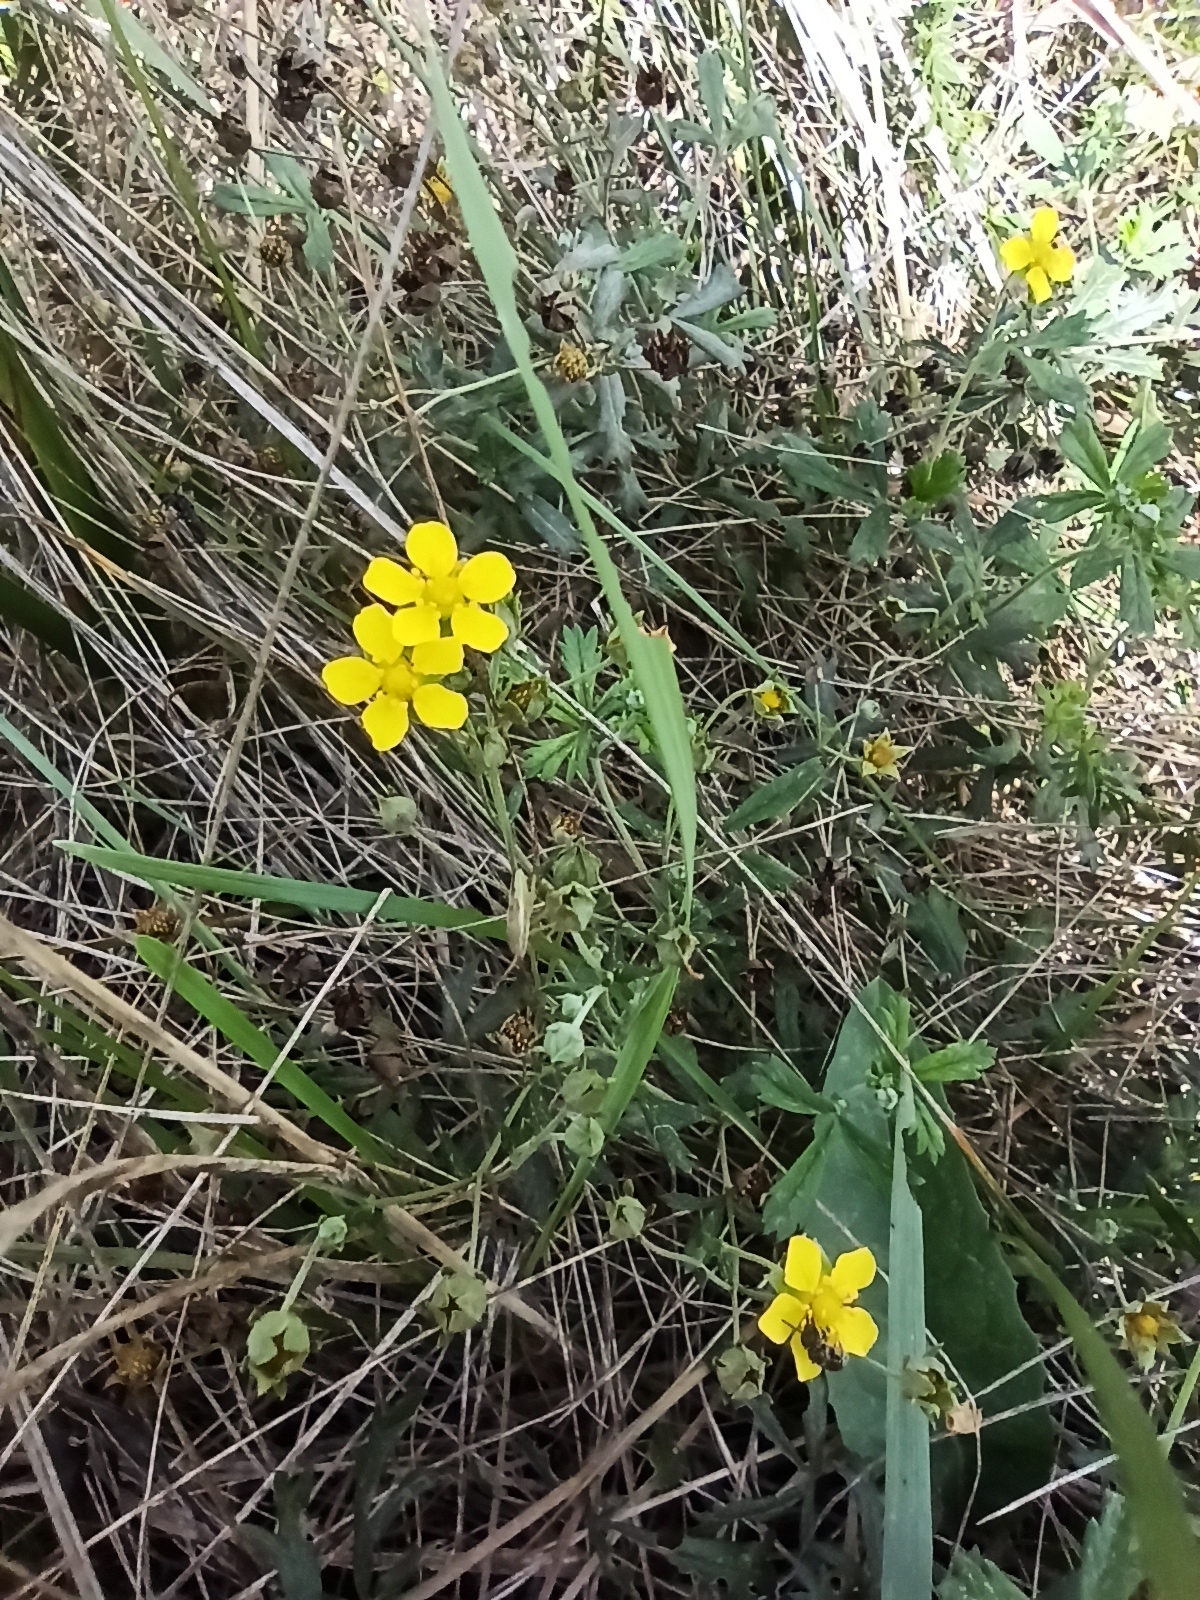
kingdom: Plantae
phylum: Tracheophyta
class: Magnoliopsida
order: Rosales
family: Rosaceae
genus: Potentilla
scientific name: Potentilla argentea
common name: Hoary cinquefoil
